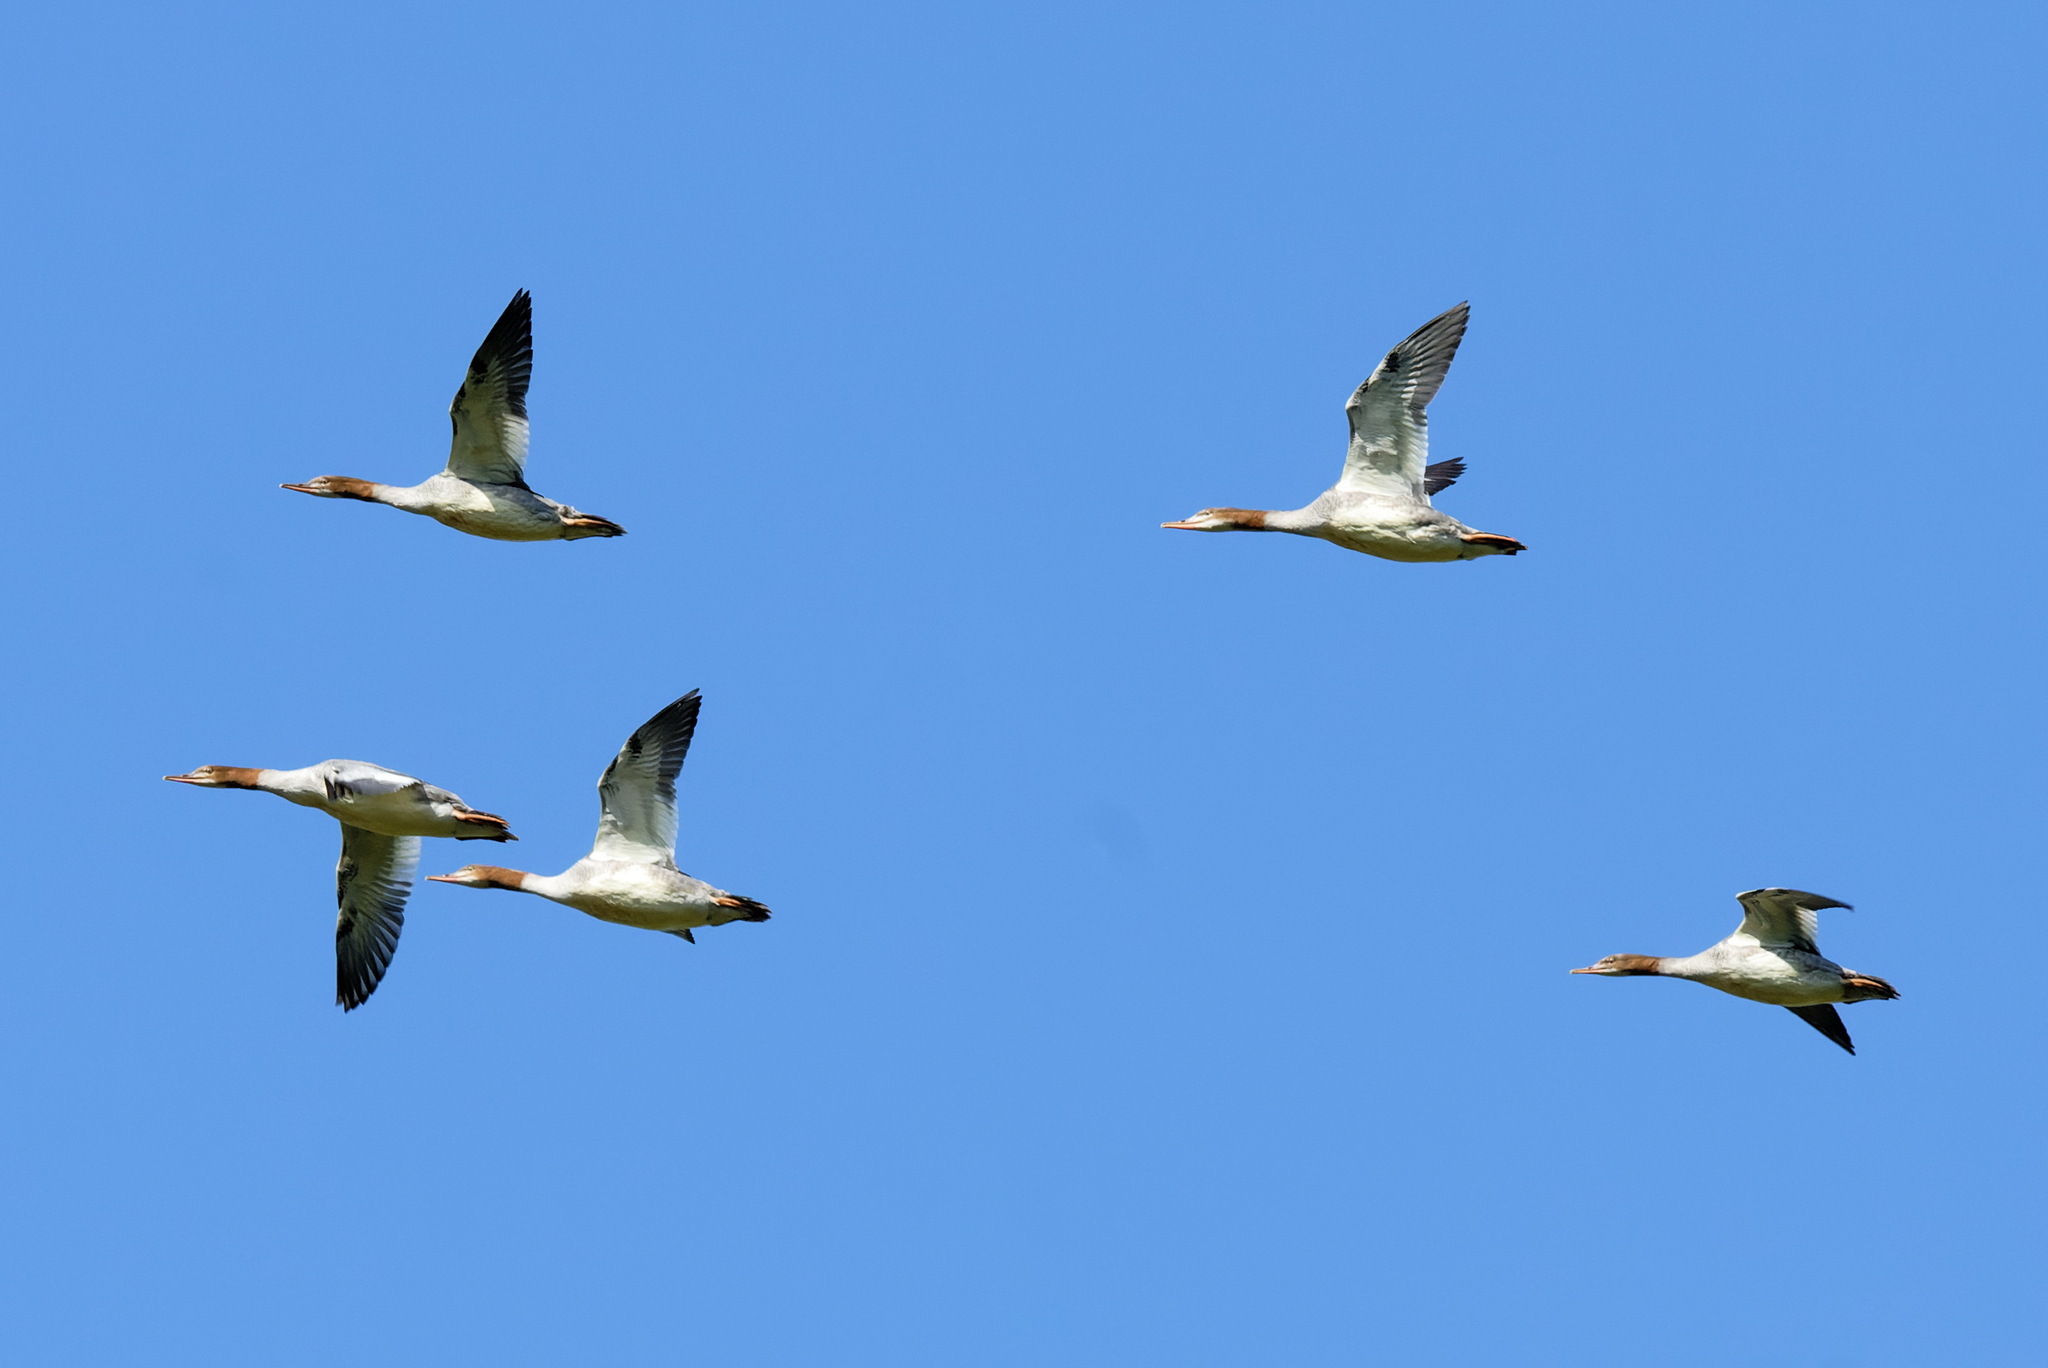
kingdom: Animalia
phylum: Chordata
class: Aves
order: Anseriformes
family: Anatidae
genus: Mergus
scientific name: Mergus merganser
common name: Common merganser
